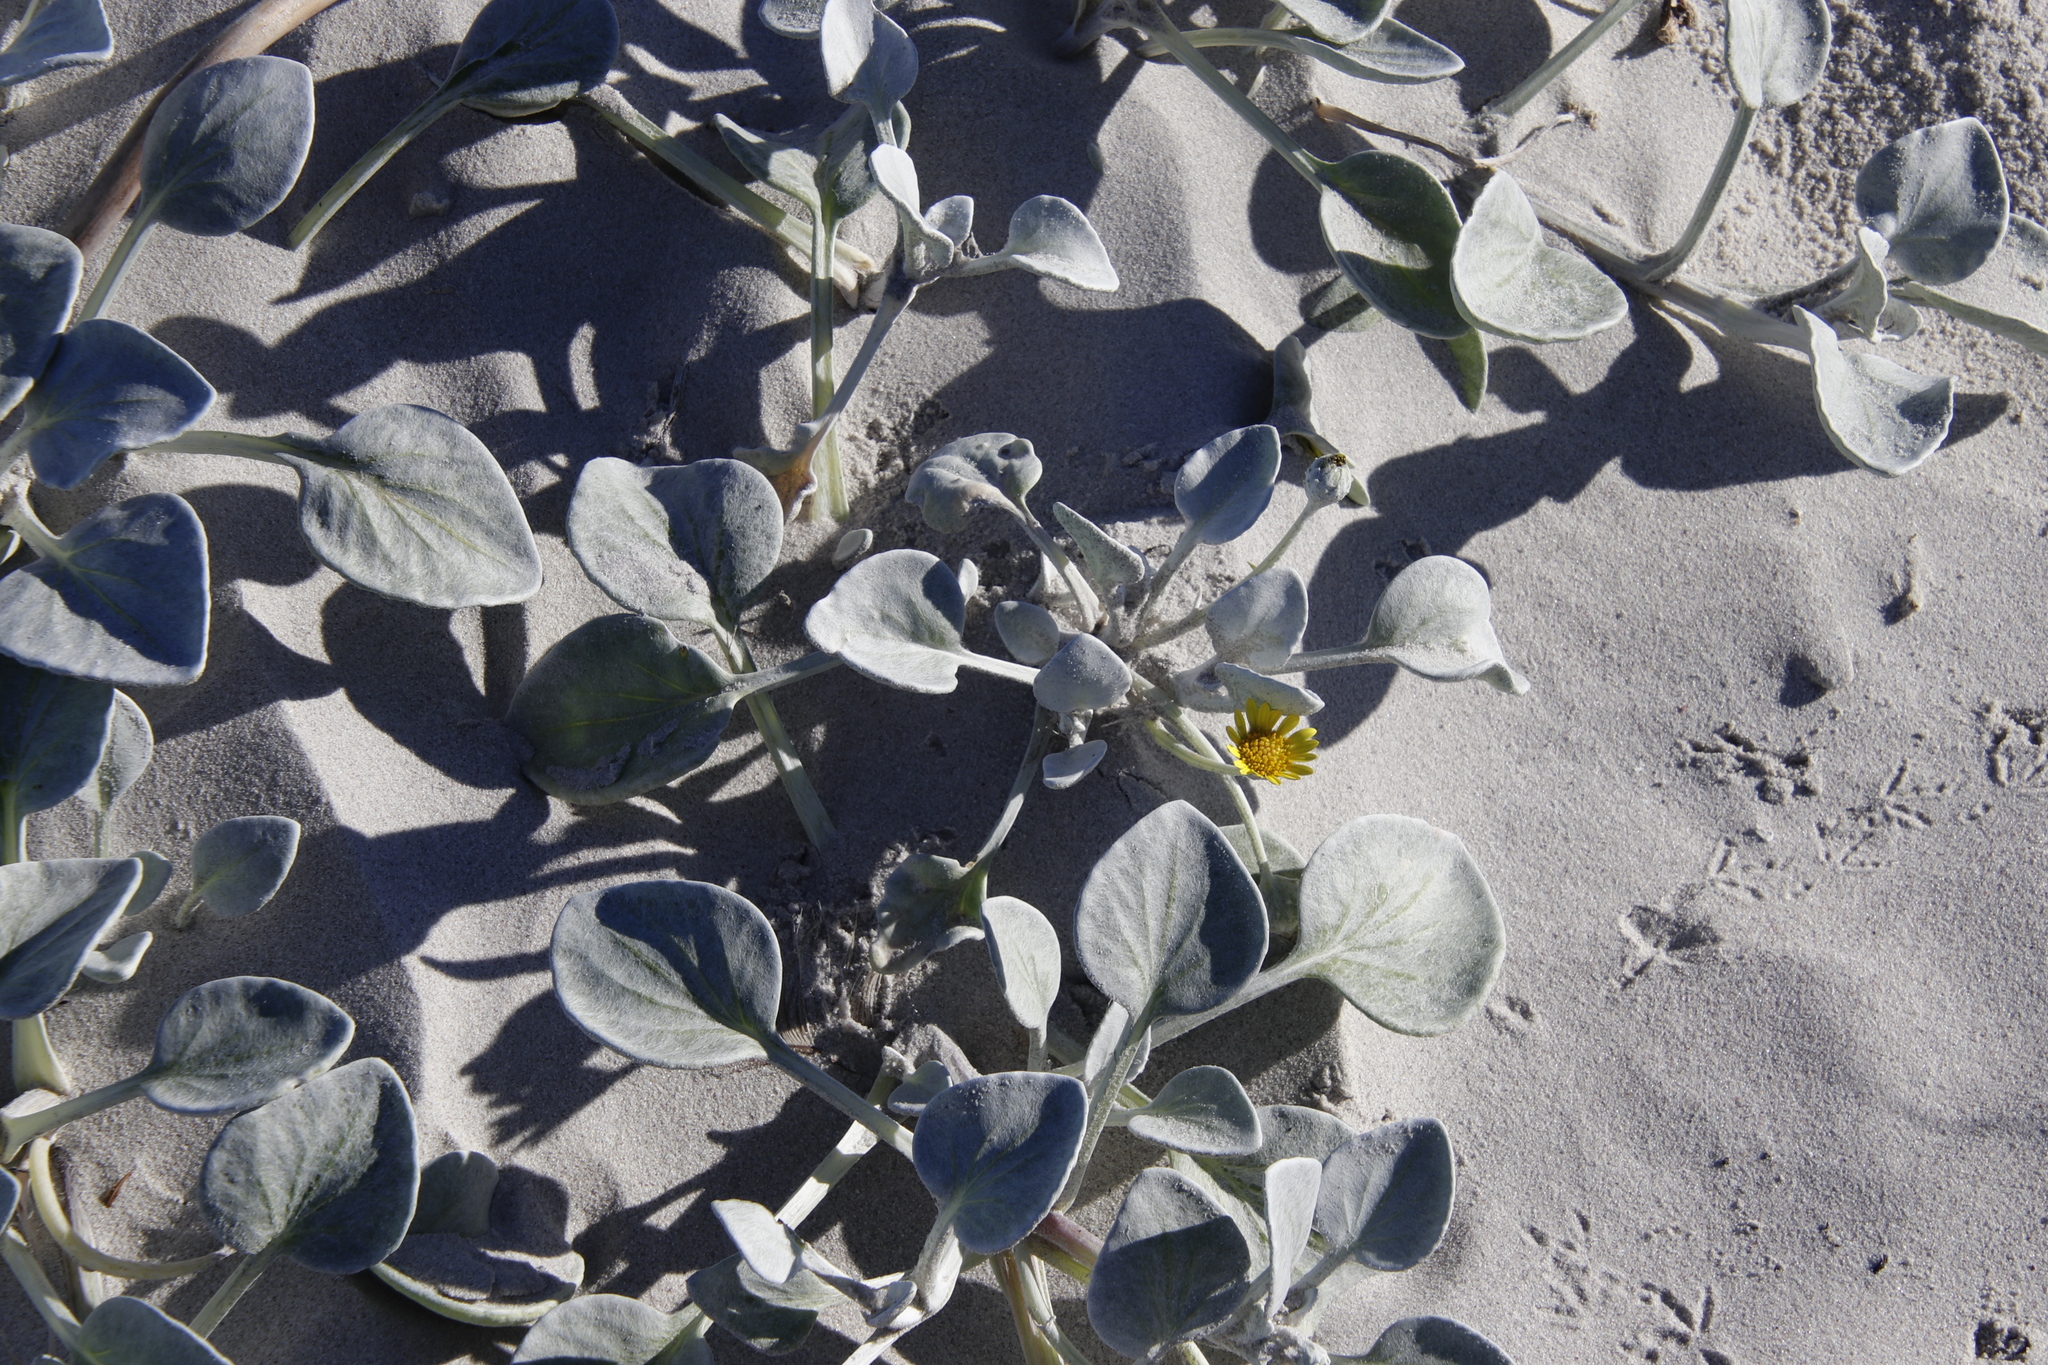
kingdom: Plantae
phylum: Tracheophyta
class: Magnoliopsida
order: Asterales
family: Asteraceae
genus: Arctotheca
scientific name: Arctotheca populifolia
